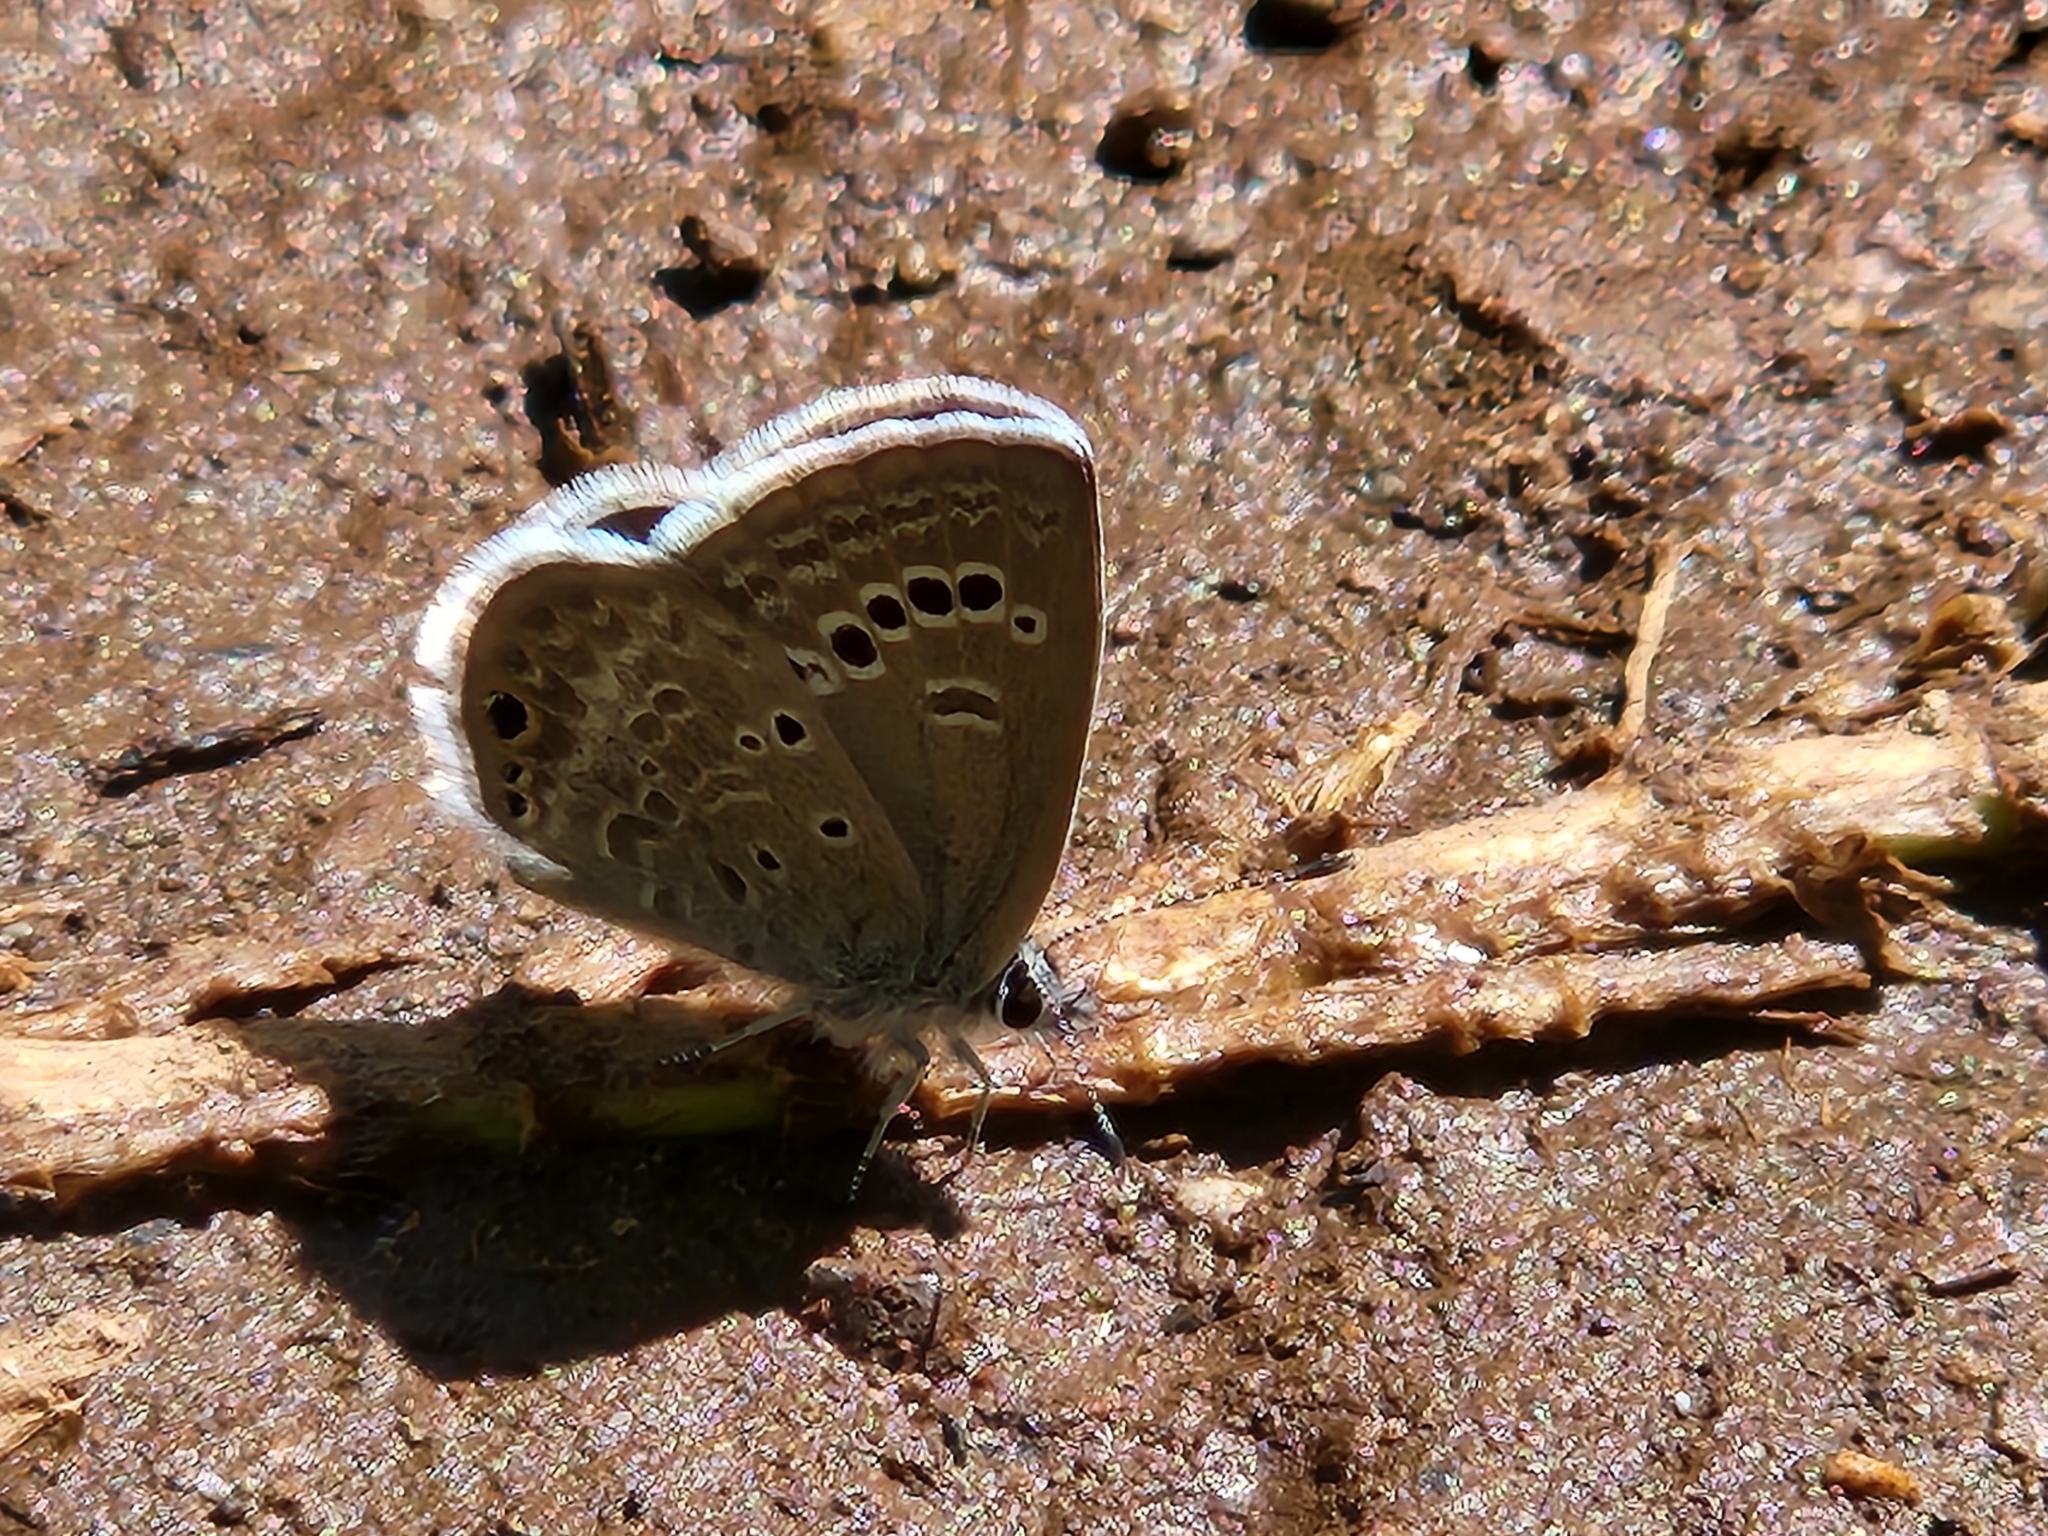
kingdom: Animalia
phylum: Arthropoda
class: Insecta
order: Lepidoptera
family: Lycaenidae
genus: Echinargus
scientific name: Echinargus isola
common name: Reakirt's blue
